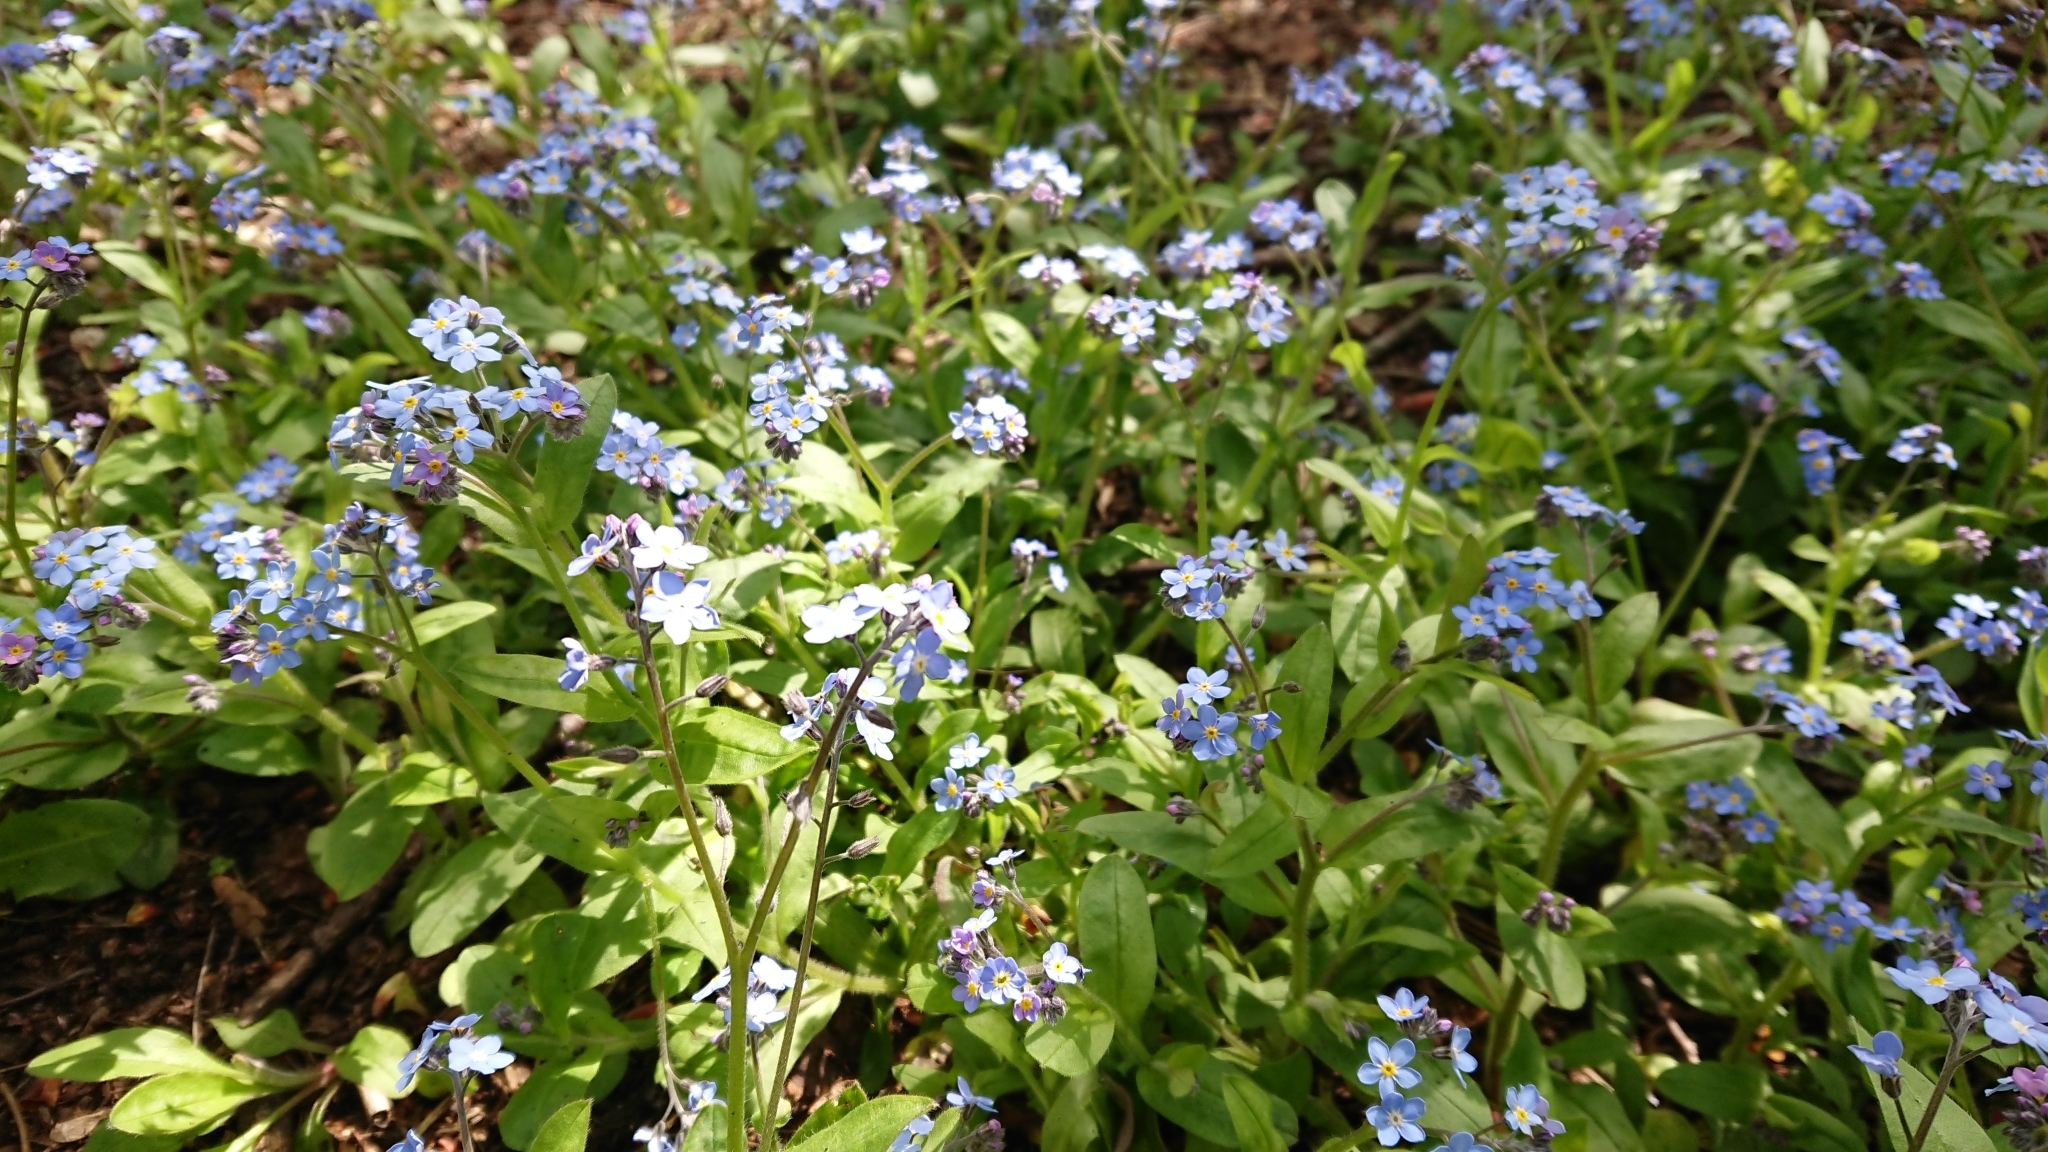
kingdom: Plantae
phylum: Tracheophyta
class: Magnoliopsida
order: Boraginales
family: Boraginaceae
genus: Myosotis
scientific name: Myosotis sylvatica
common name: Wood forget-me-not
